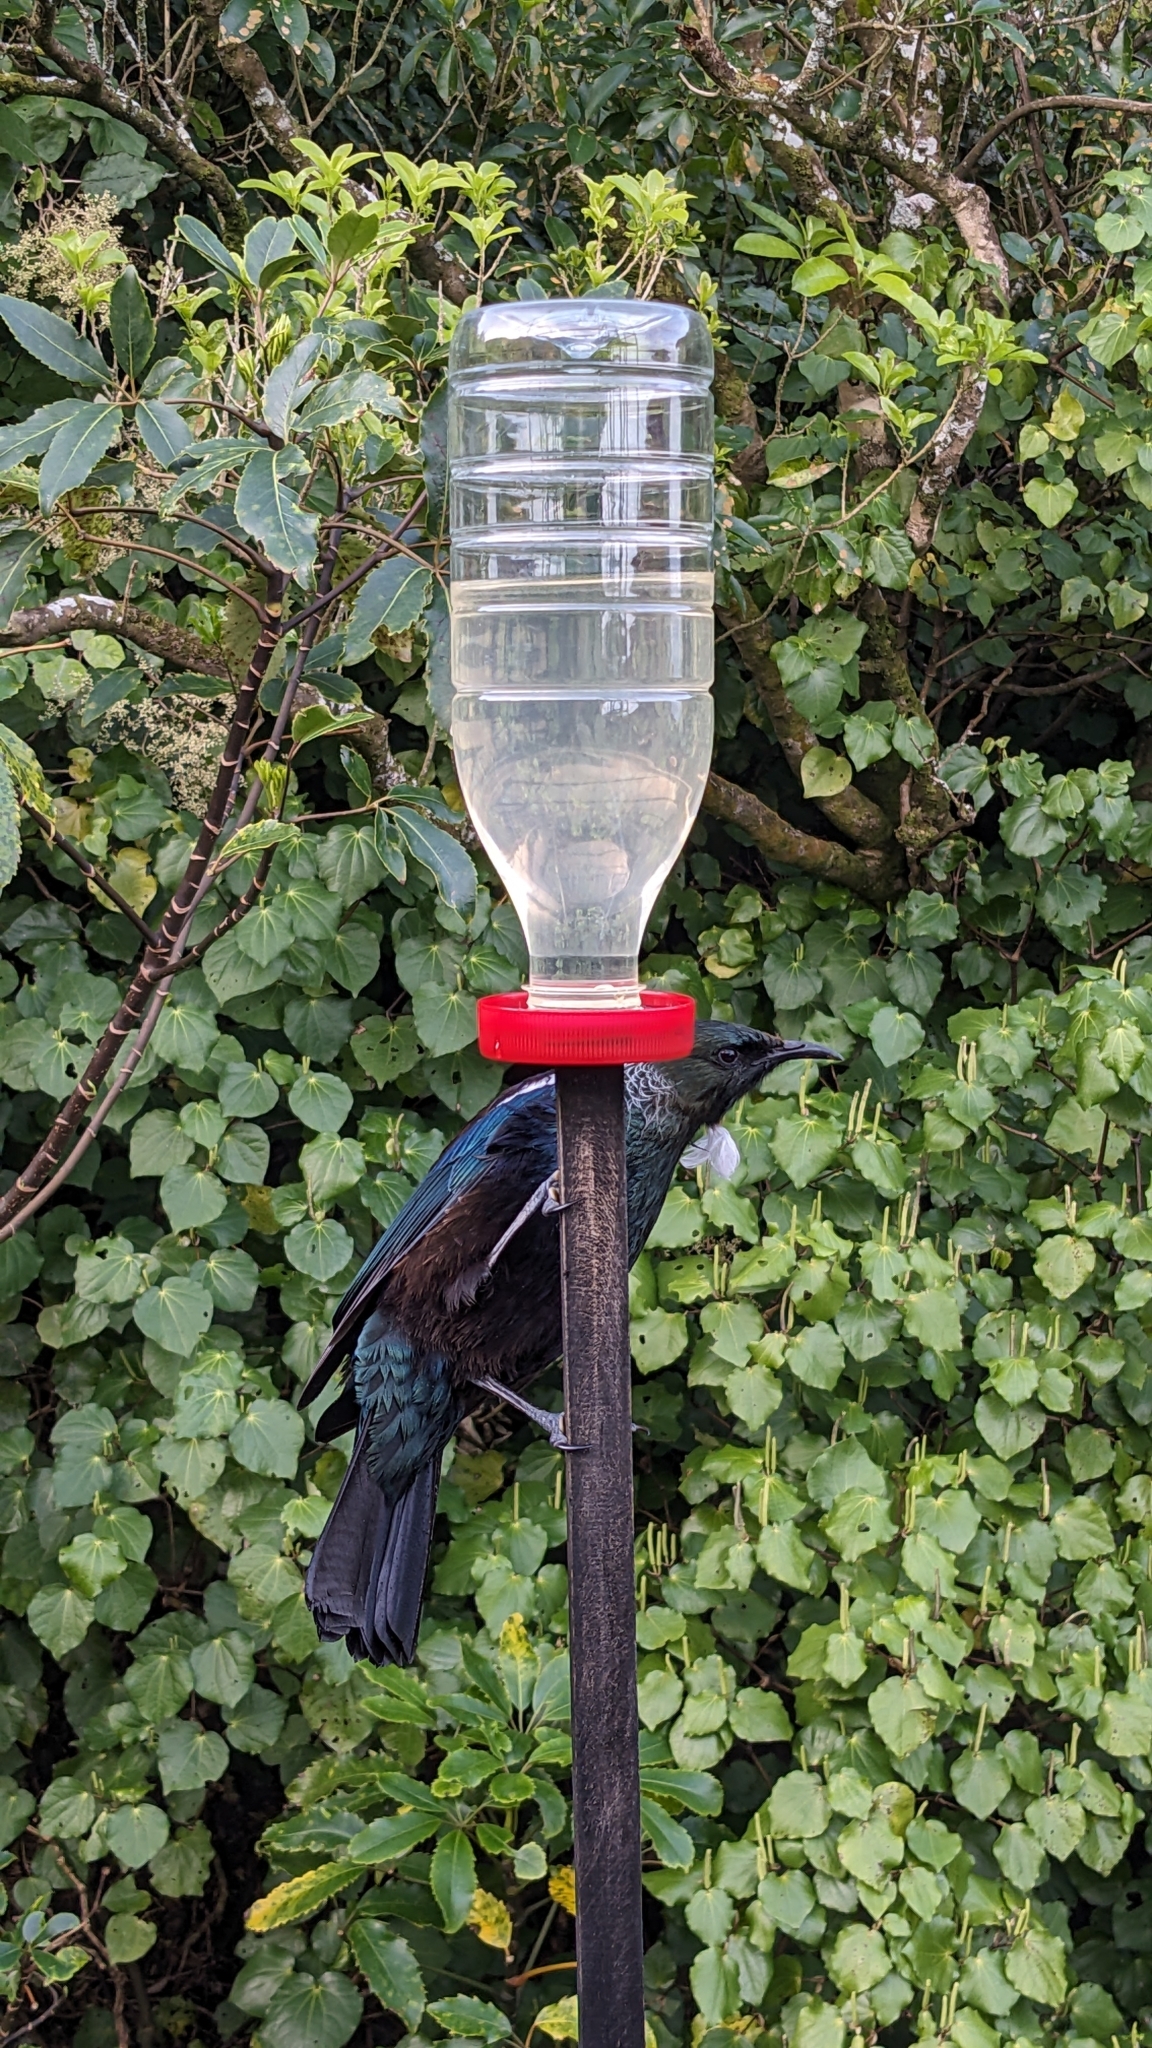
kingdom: Animalia
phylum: Chordata
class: Aves
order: Passeriformes
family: Meliphagidae
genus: Prosthemadera
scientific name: Prosthemadera novaeseelandiae
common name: Tui
